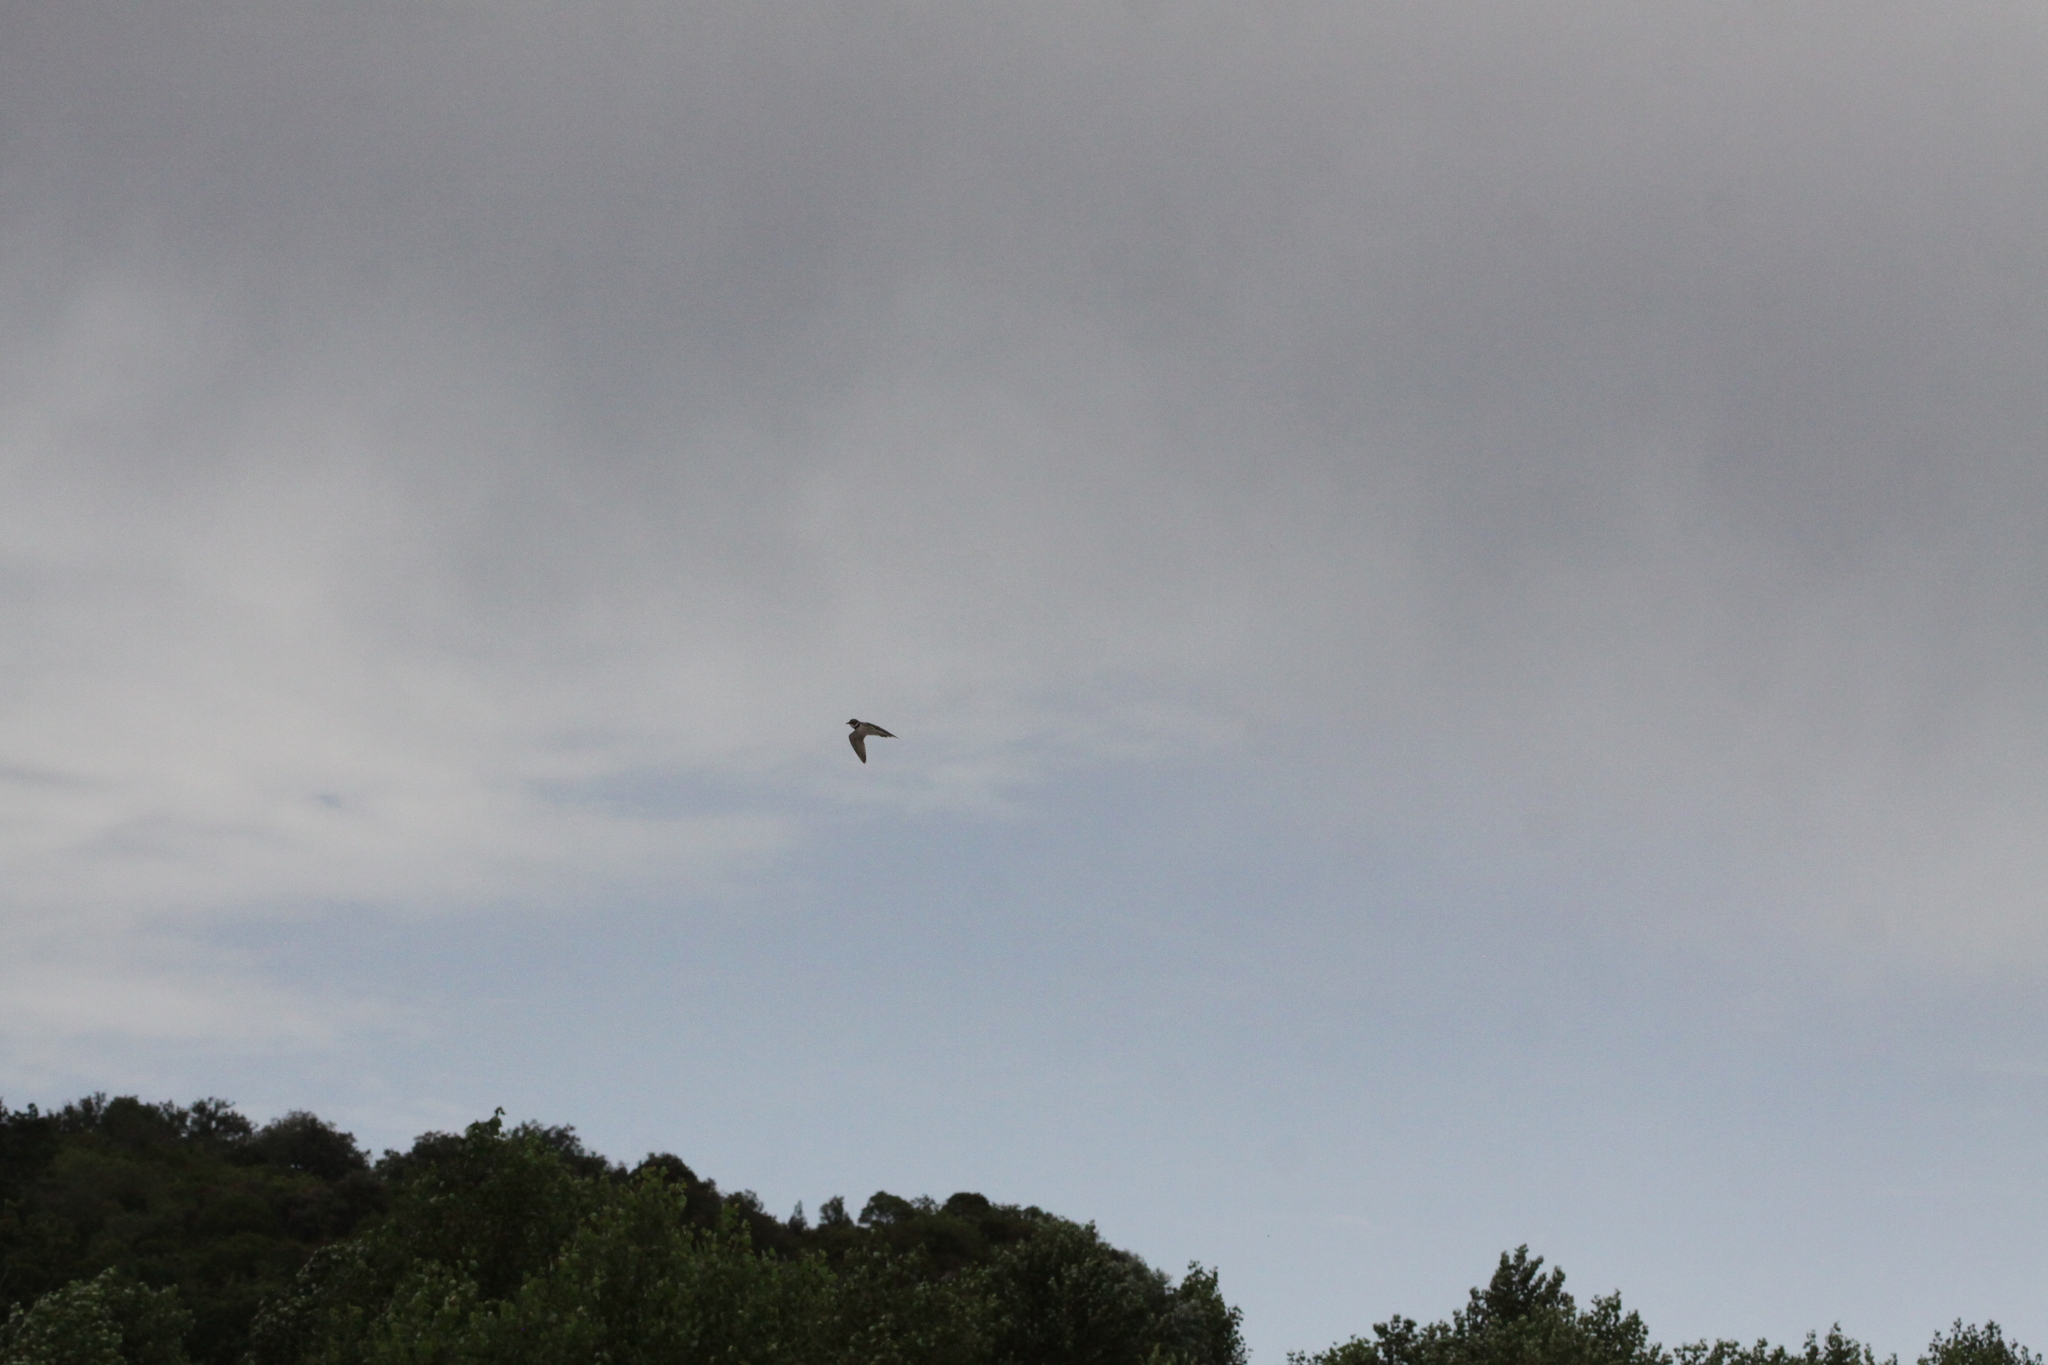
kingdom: Animalia
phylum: Chordata
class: Aves
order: Charadriiformes
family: Charadriidae
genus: Charadrius
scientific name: Charadrius dubius
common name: Little ringed plover
